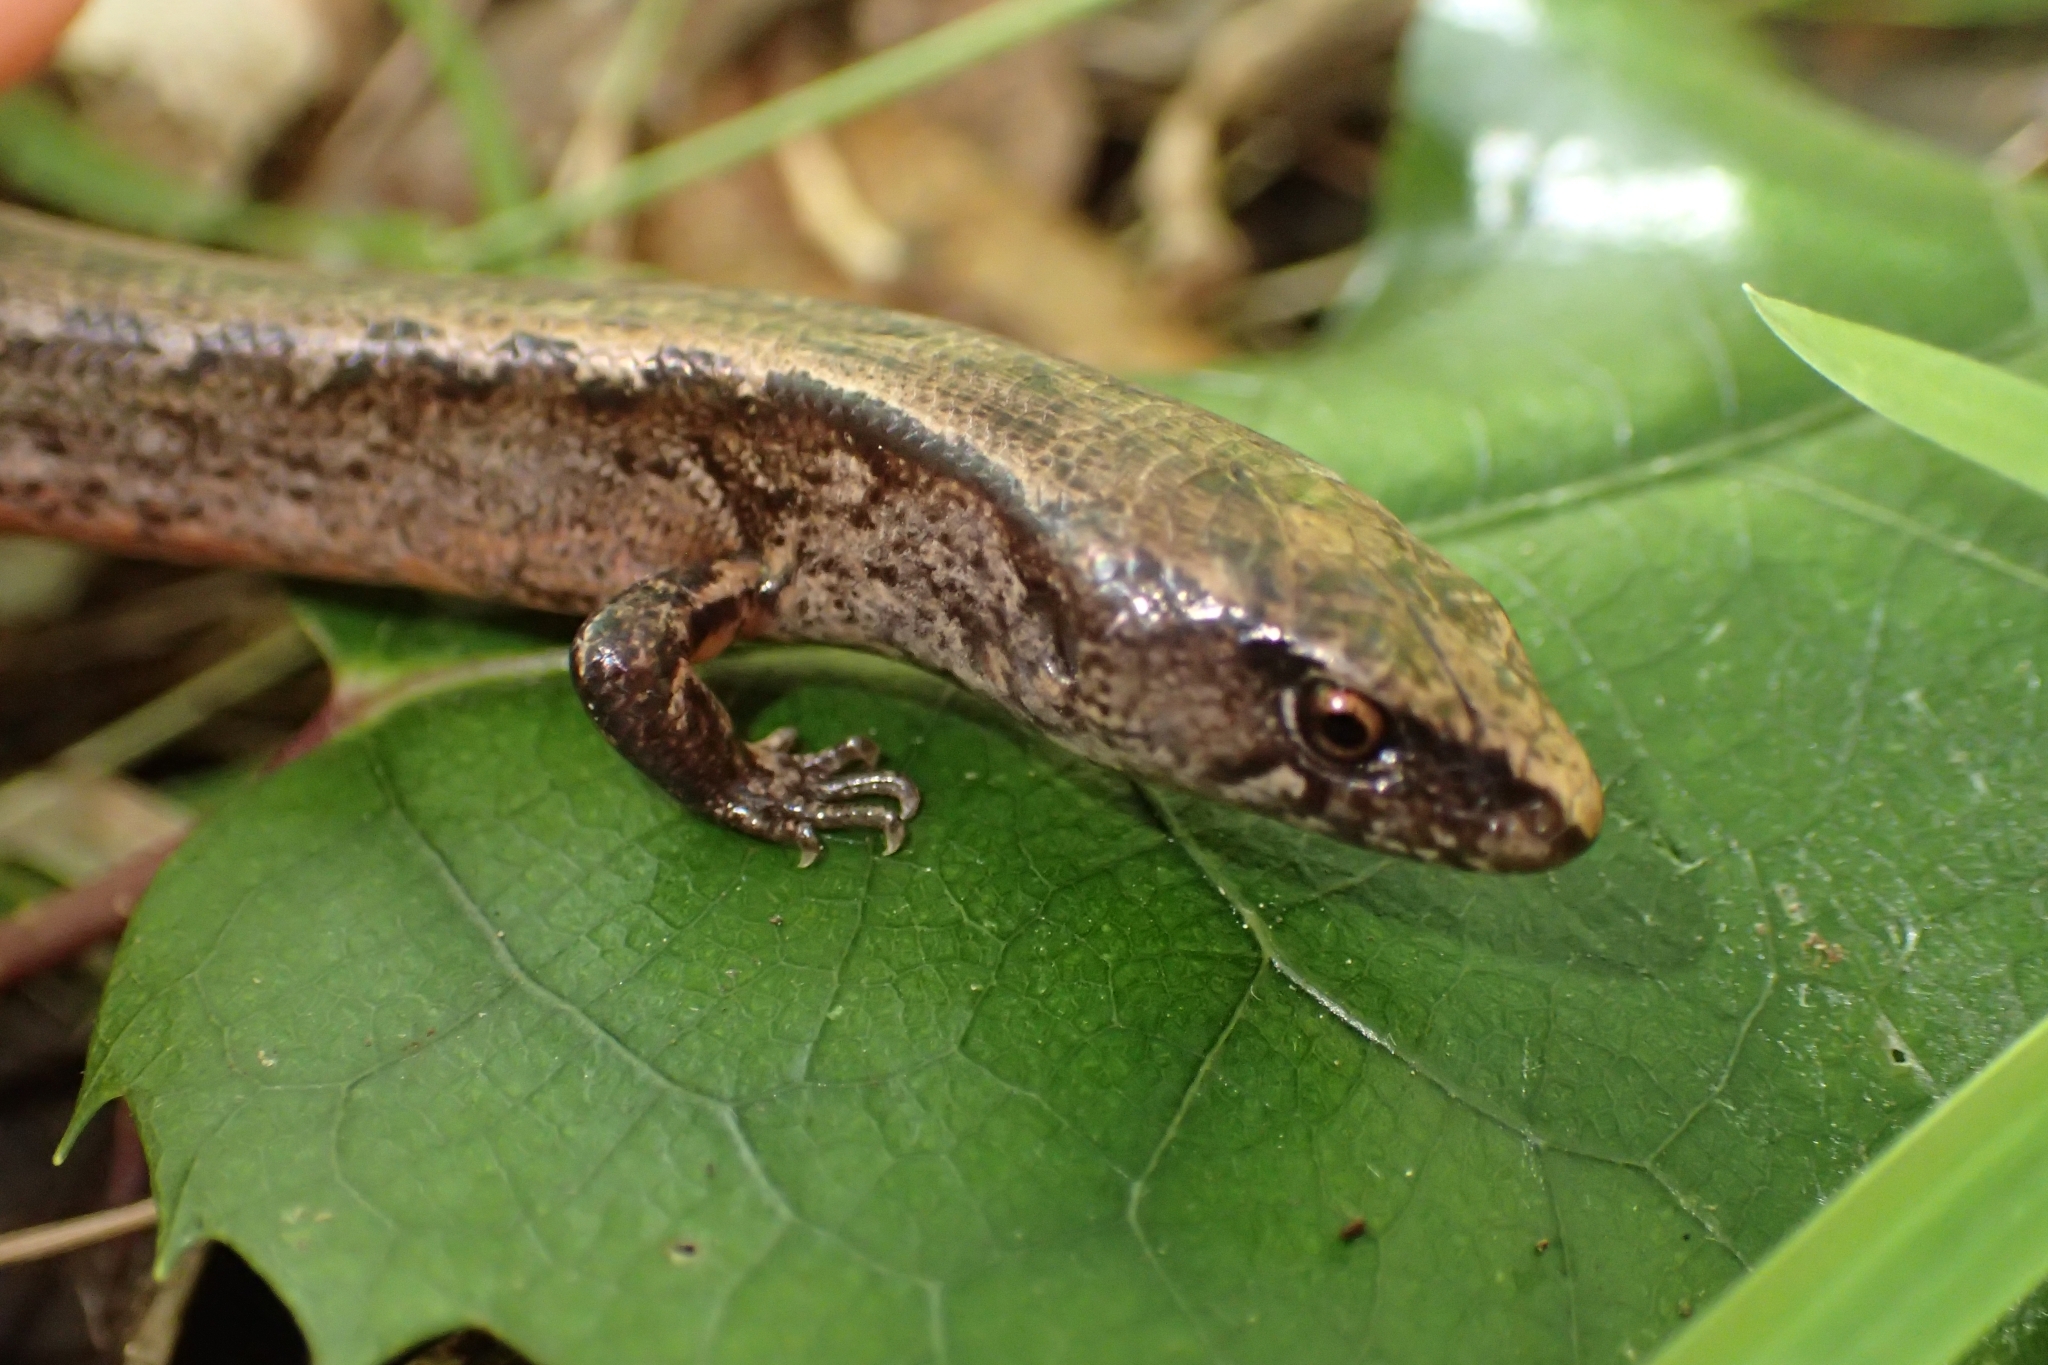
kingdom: Animalia
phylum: Chordata
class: Squamata
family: Scincidae
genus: Oligosoma
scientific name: Oligosoma ornatum
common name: Gray's ornate skink
